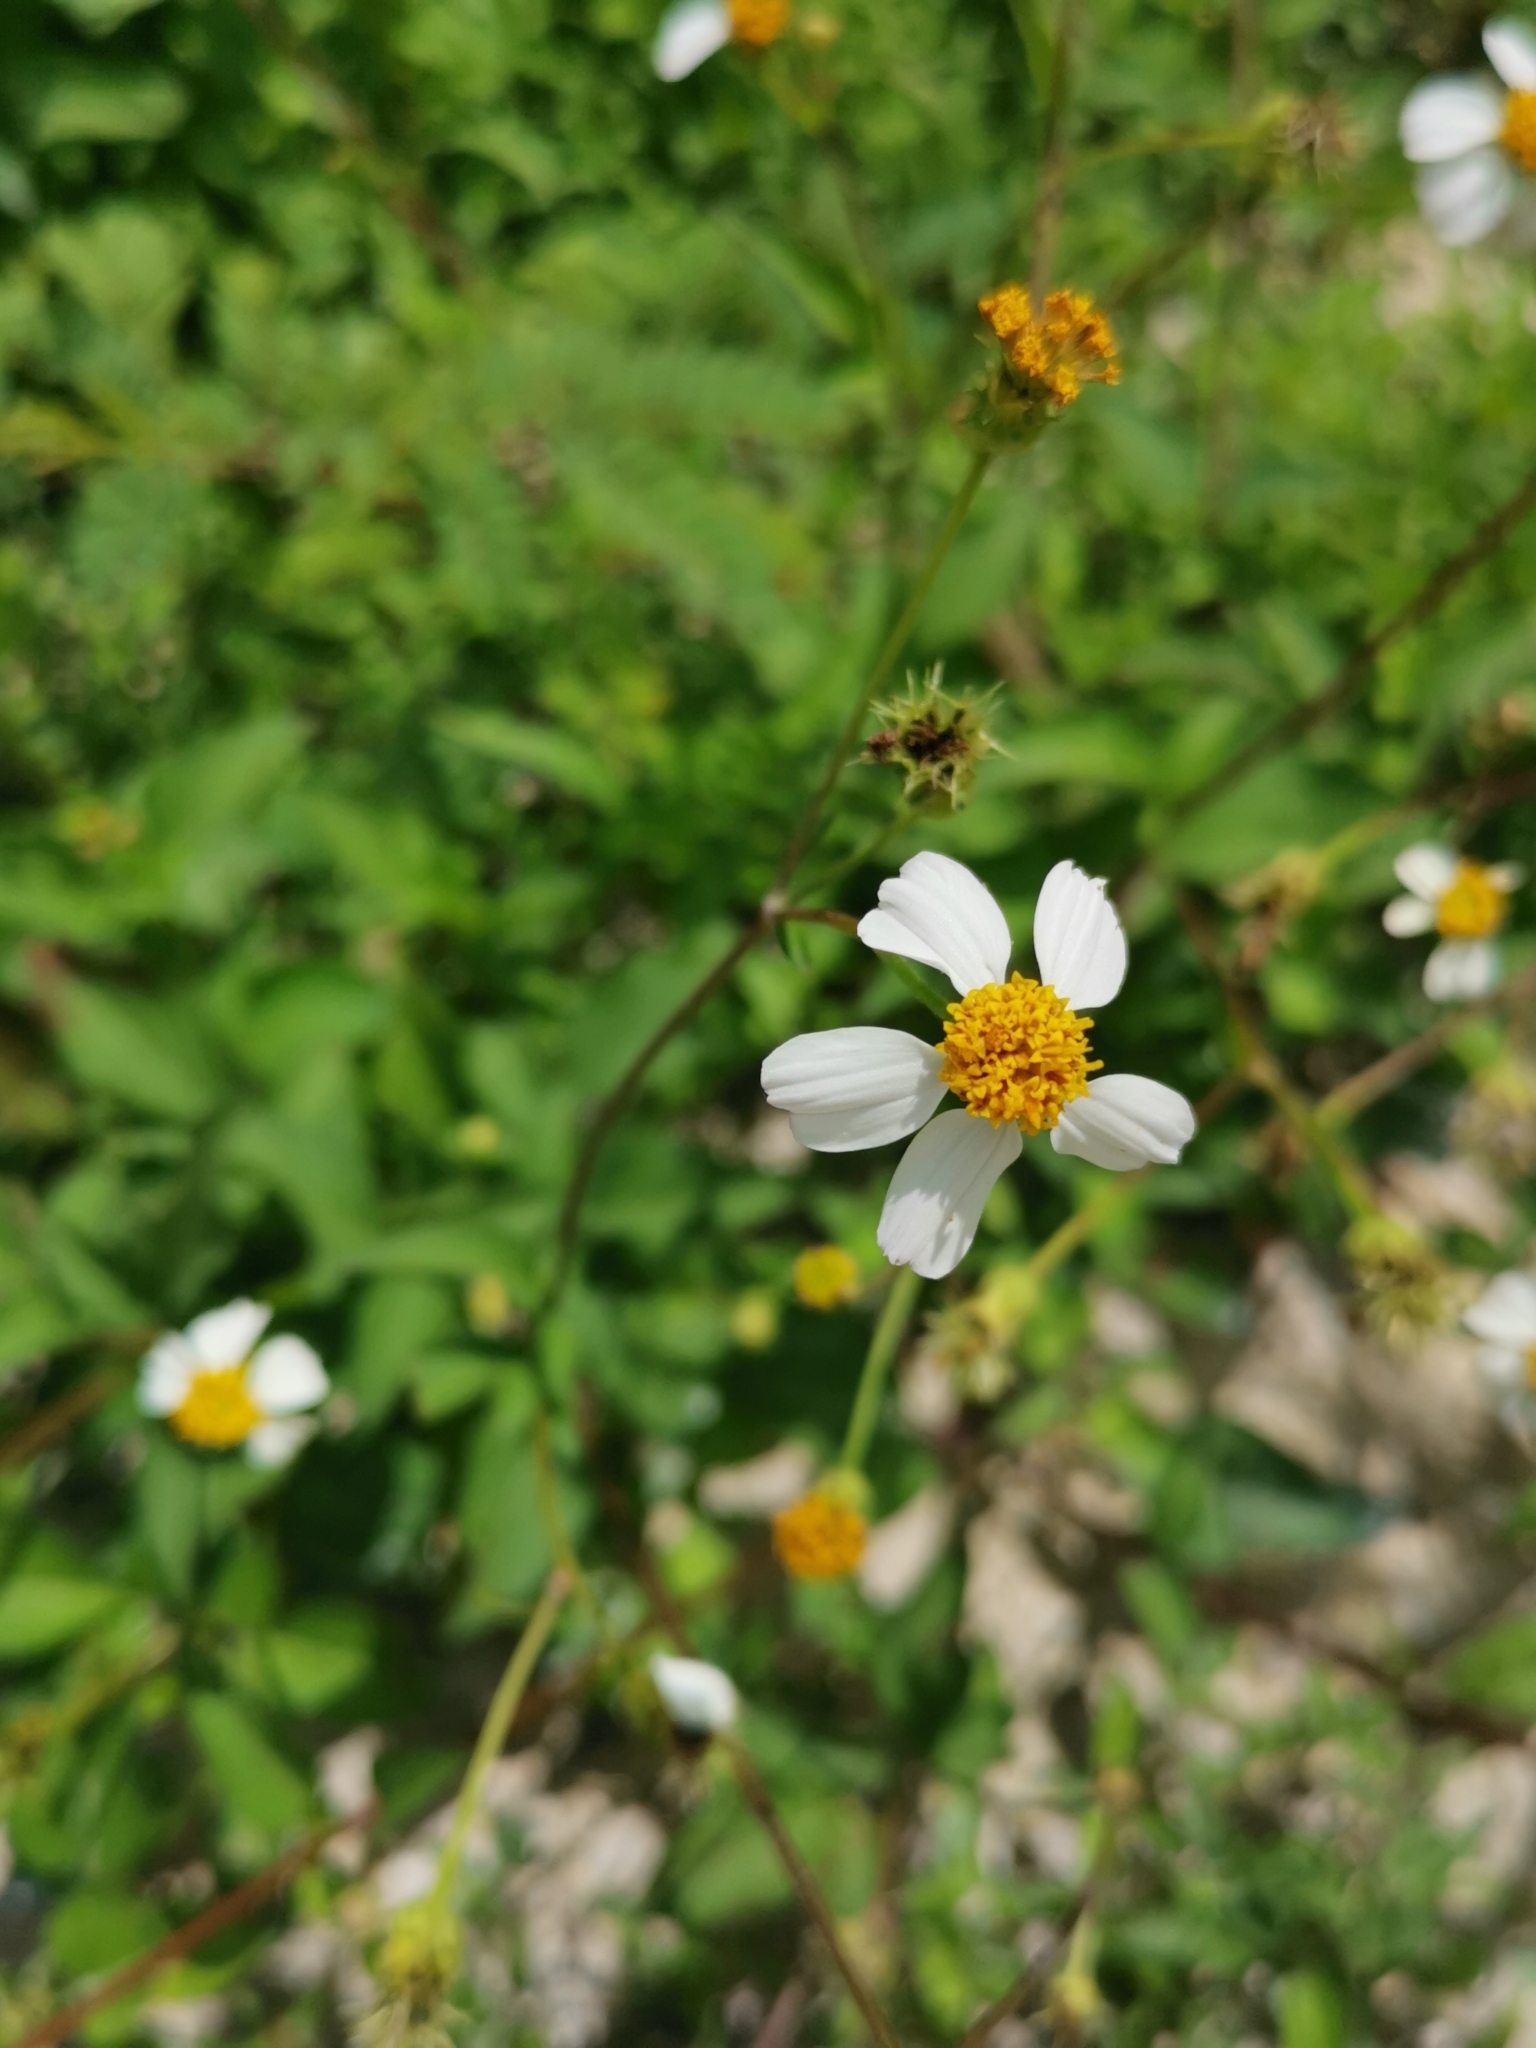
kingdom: Plantae
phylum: Tracheophyta
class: Magnoliopsida
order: Asterales
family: Asteraceae
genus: Bidens
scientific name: Bidens alba
